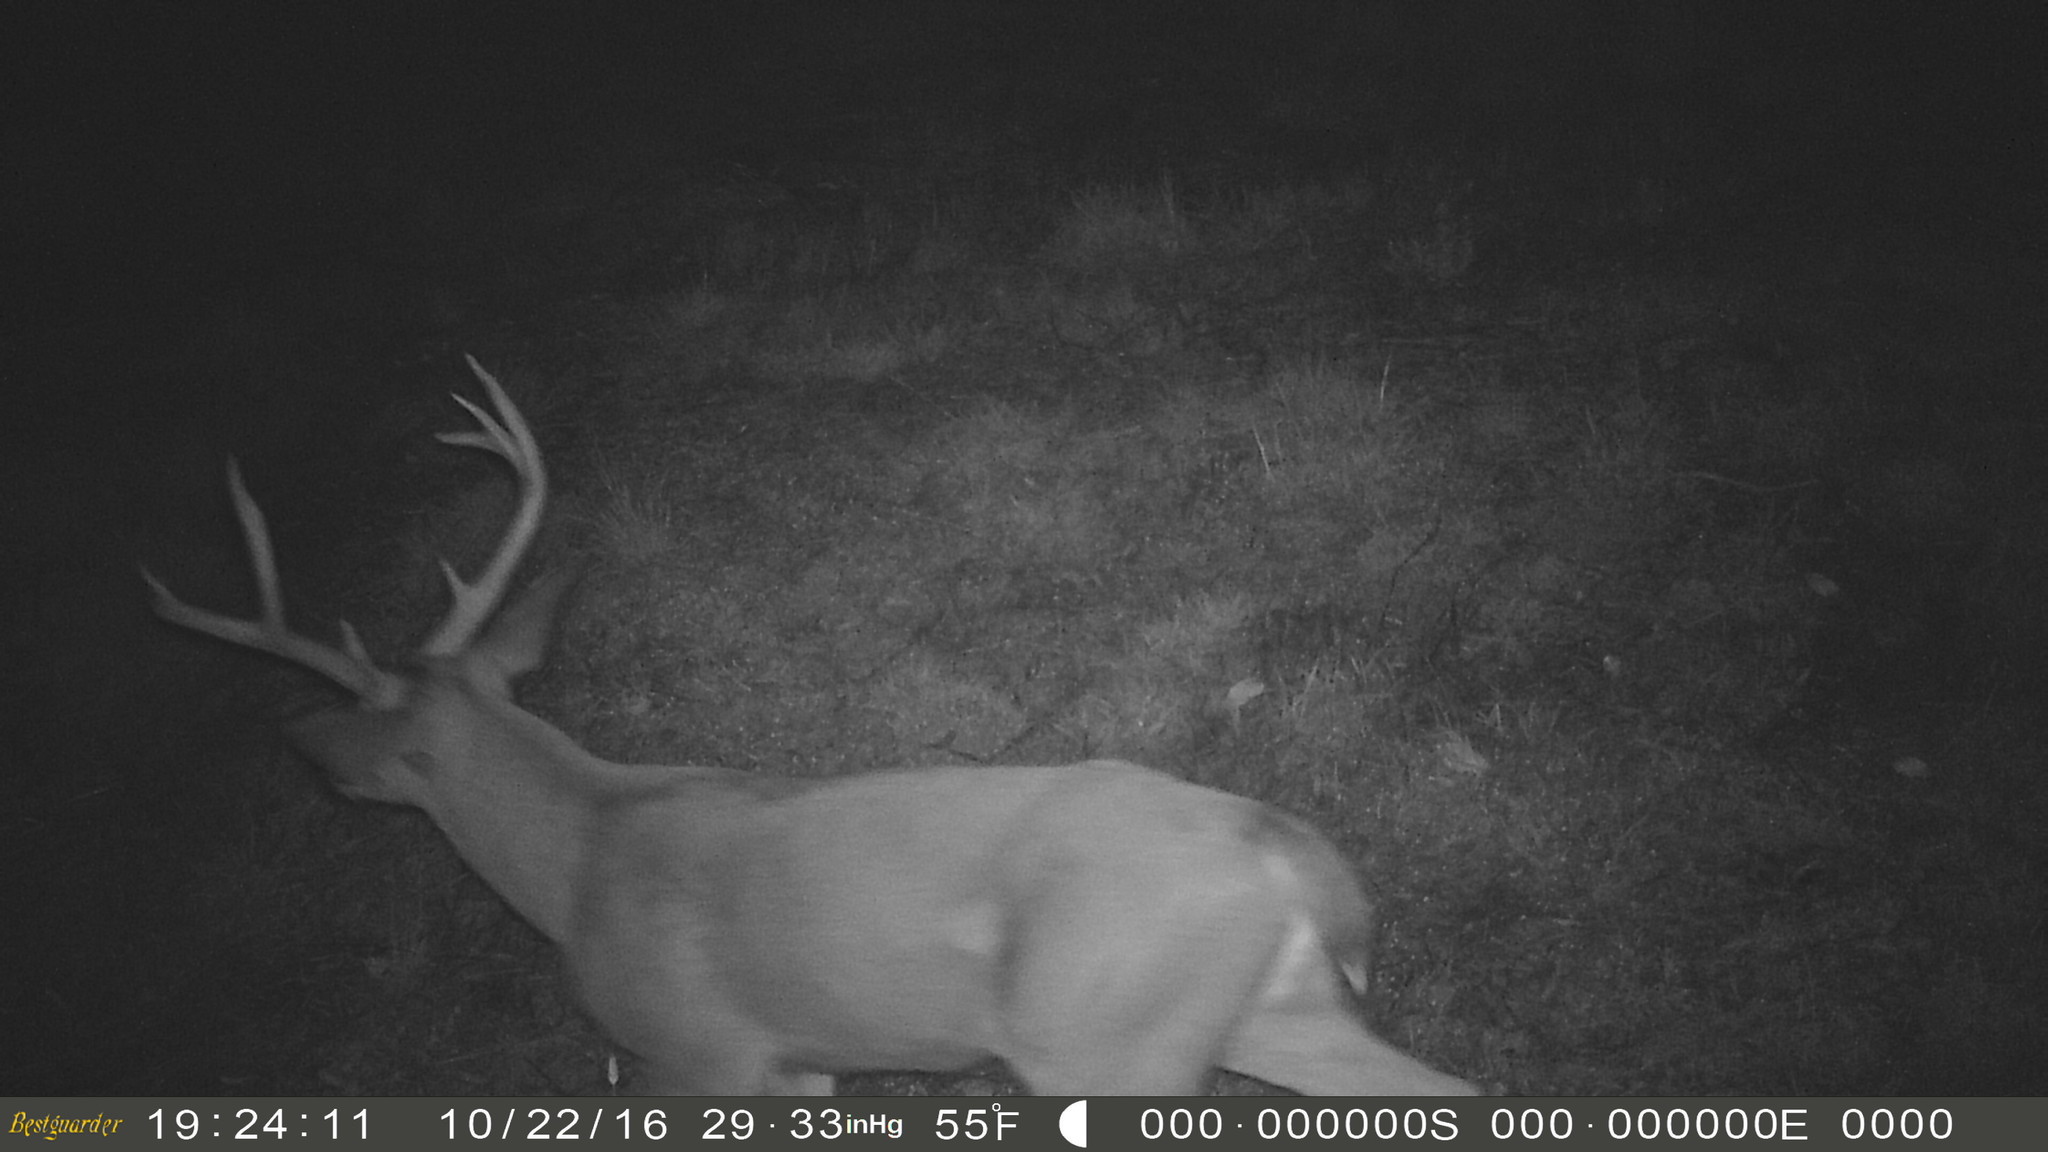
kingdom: Animalia
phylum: Chordata
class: Mammalia
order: Artiodactyla
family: Cervidae
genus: Odocoileus
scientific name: Odocoileus hemionus
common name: Mule deer
